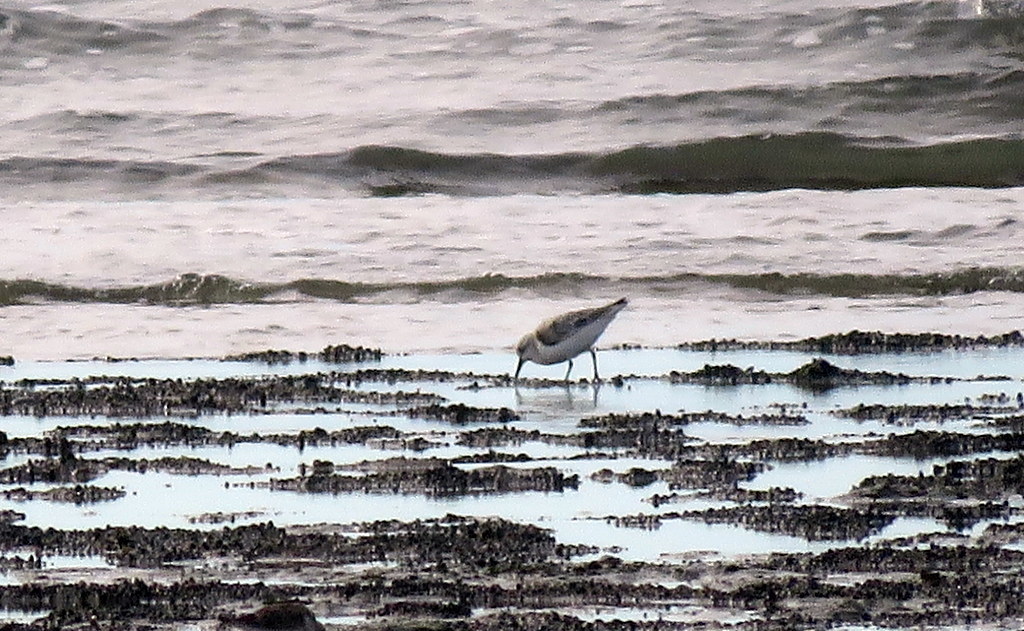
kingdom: Animalia
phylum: Chordata
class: Aves
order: Charadriiformes
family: Scolopacidae
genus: Calidris
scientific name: Calidris alba
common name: Sanderling
